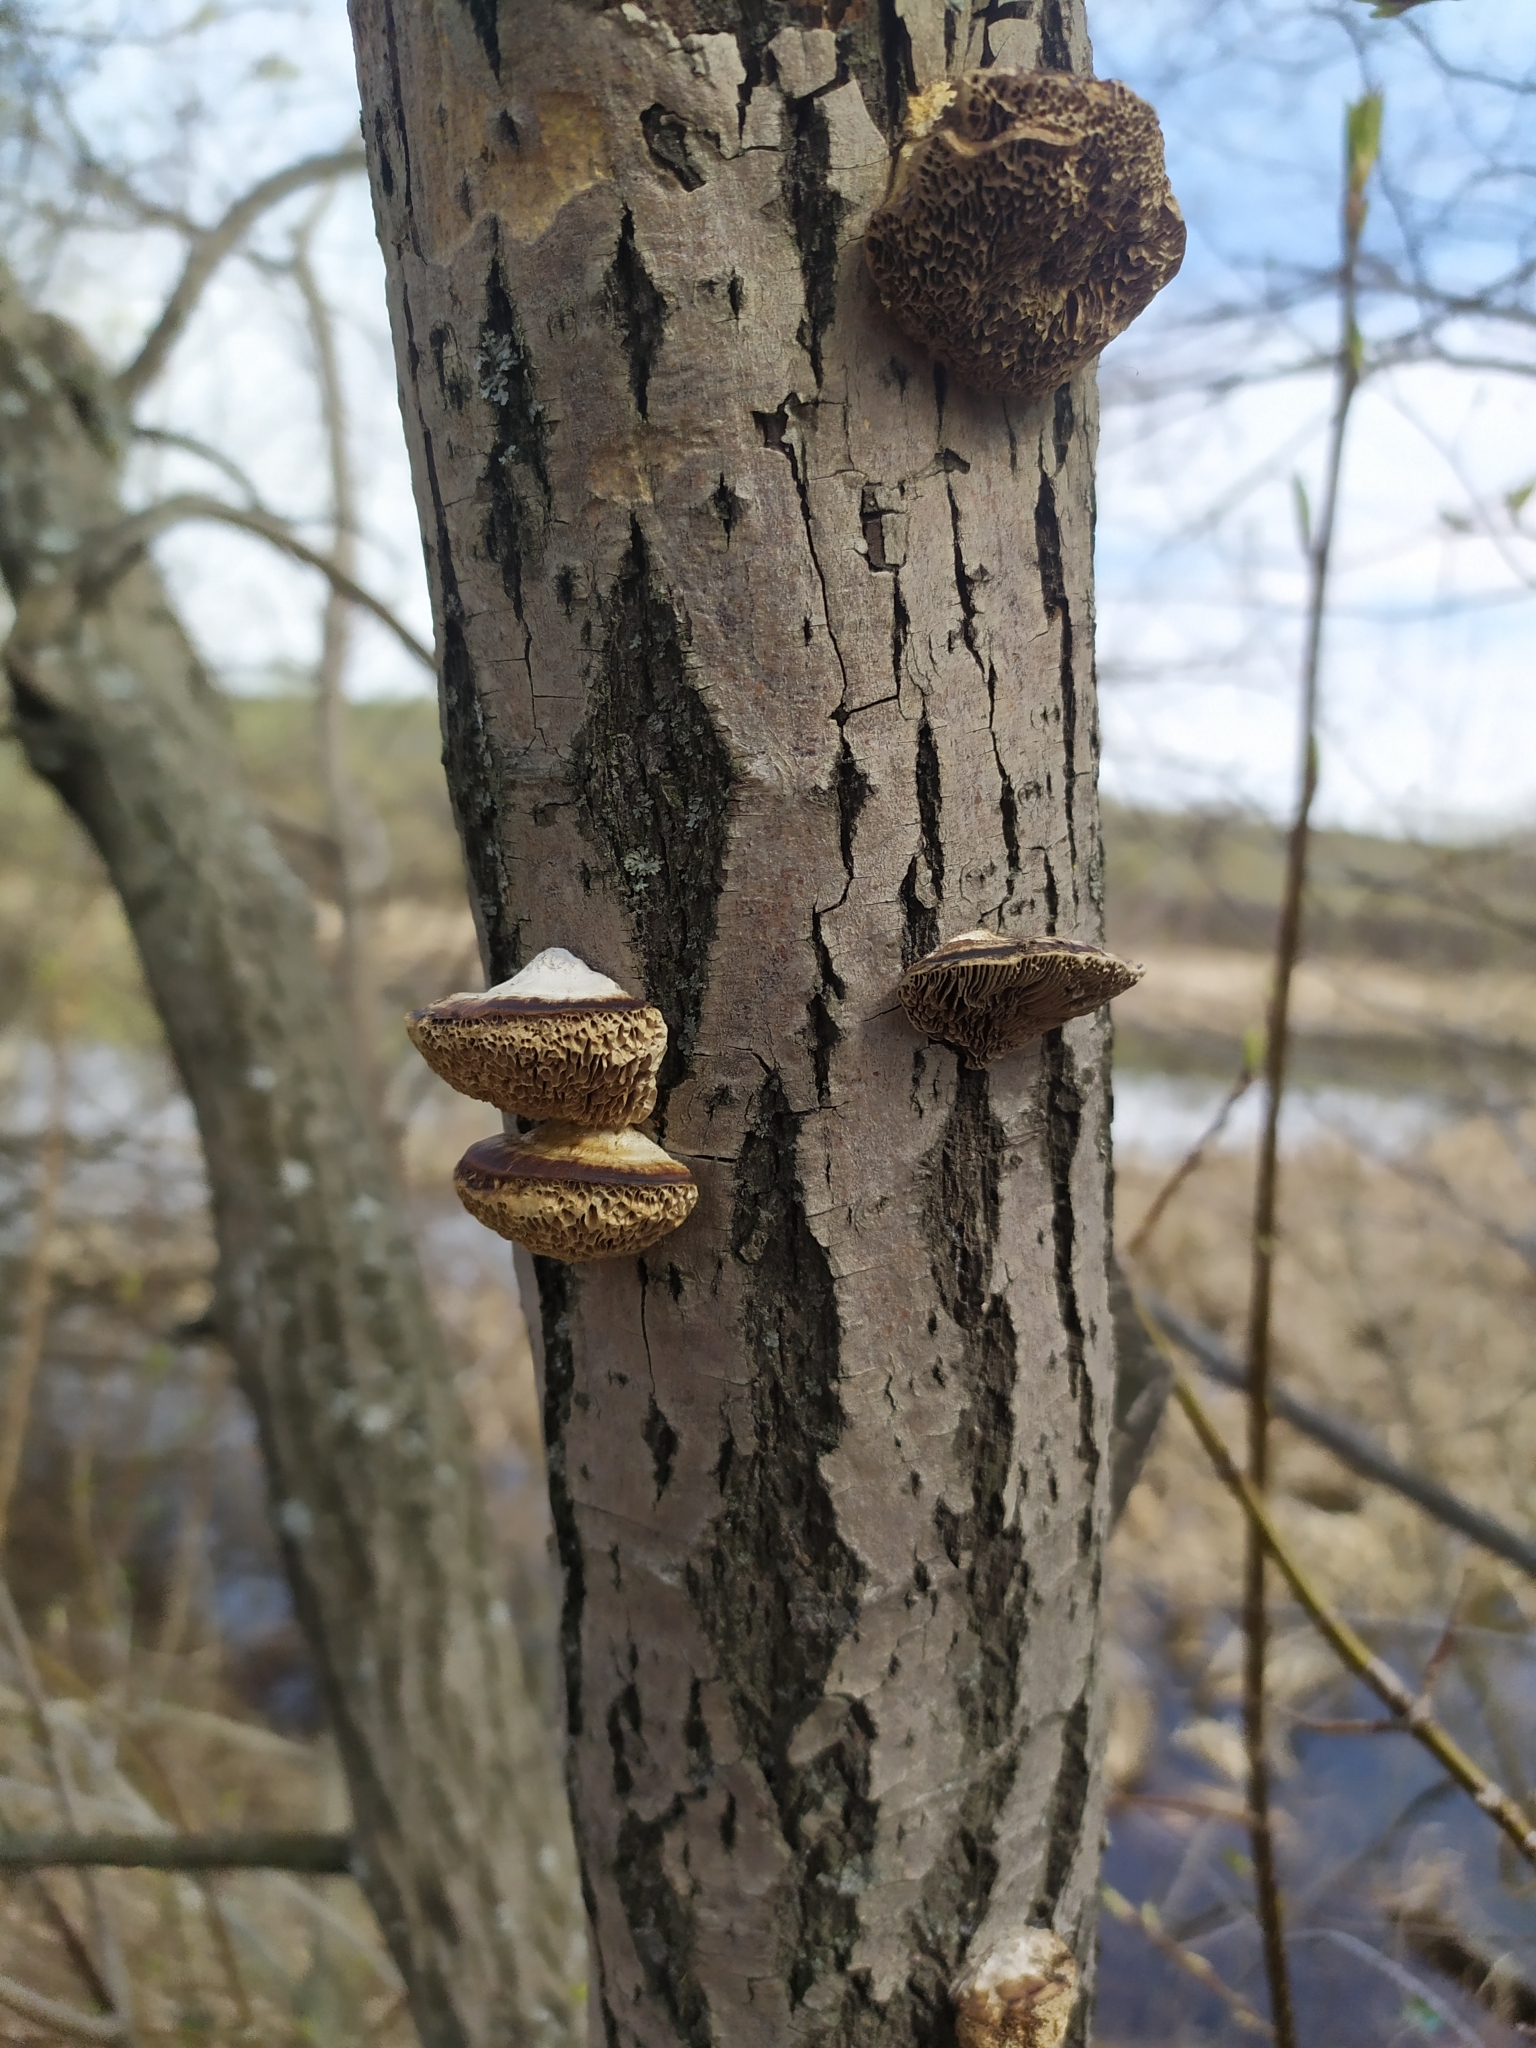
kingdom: Fungi
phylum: Basidiomycota
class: Agaricomycetes
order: Polyporales
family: Polyporaceae
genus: Daedaleopsis
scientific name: Daedaleopsis confragosa
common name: Blushing bracket
